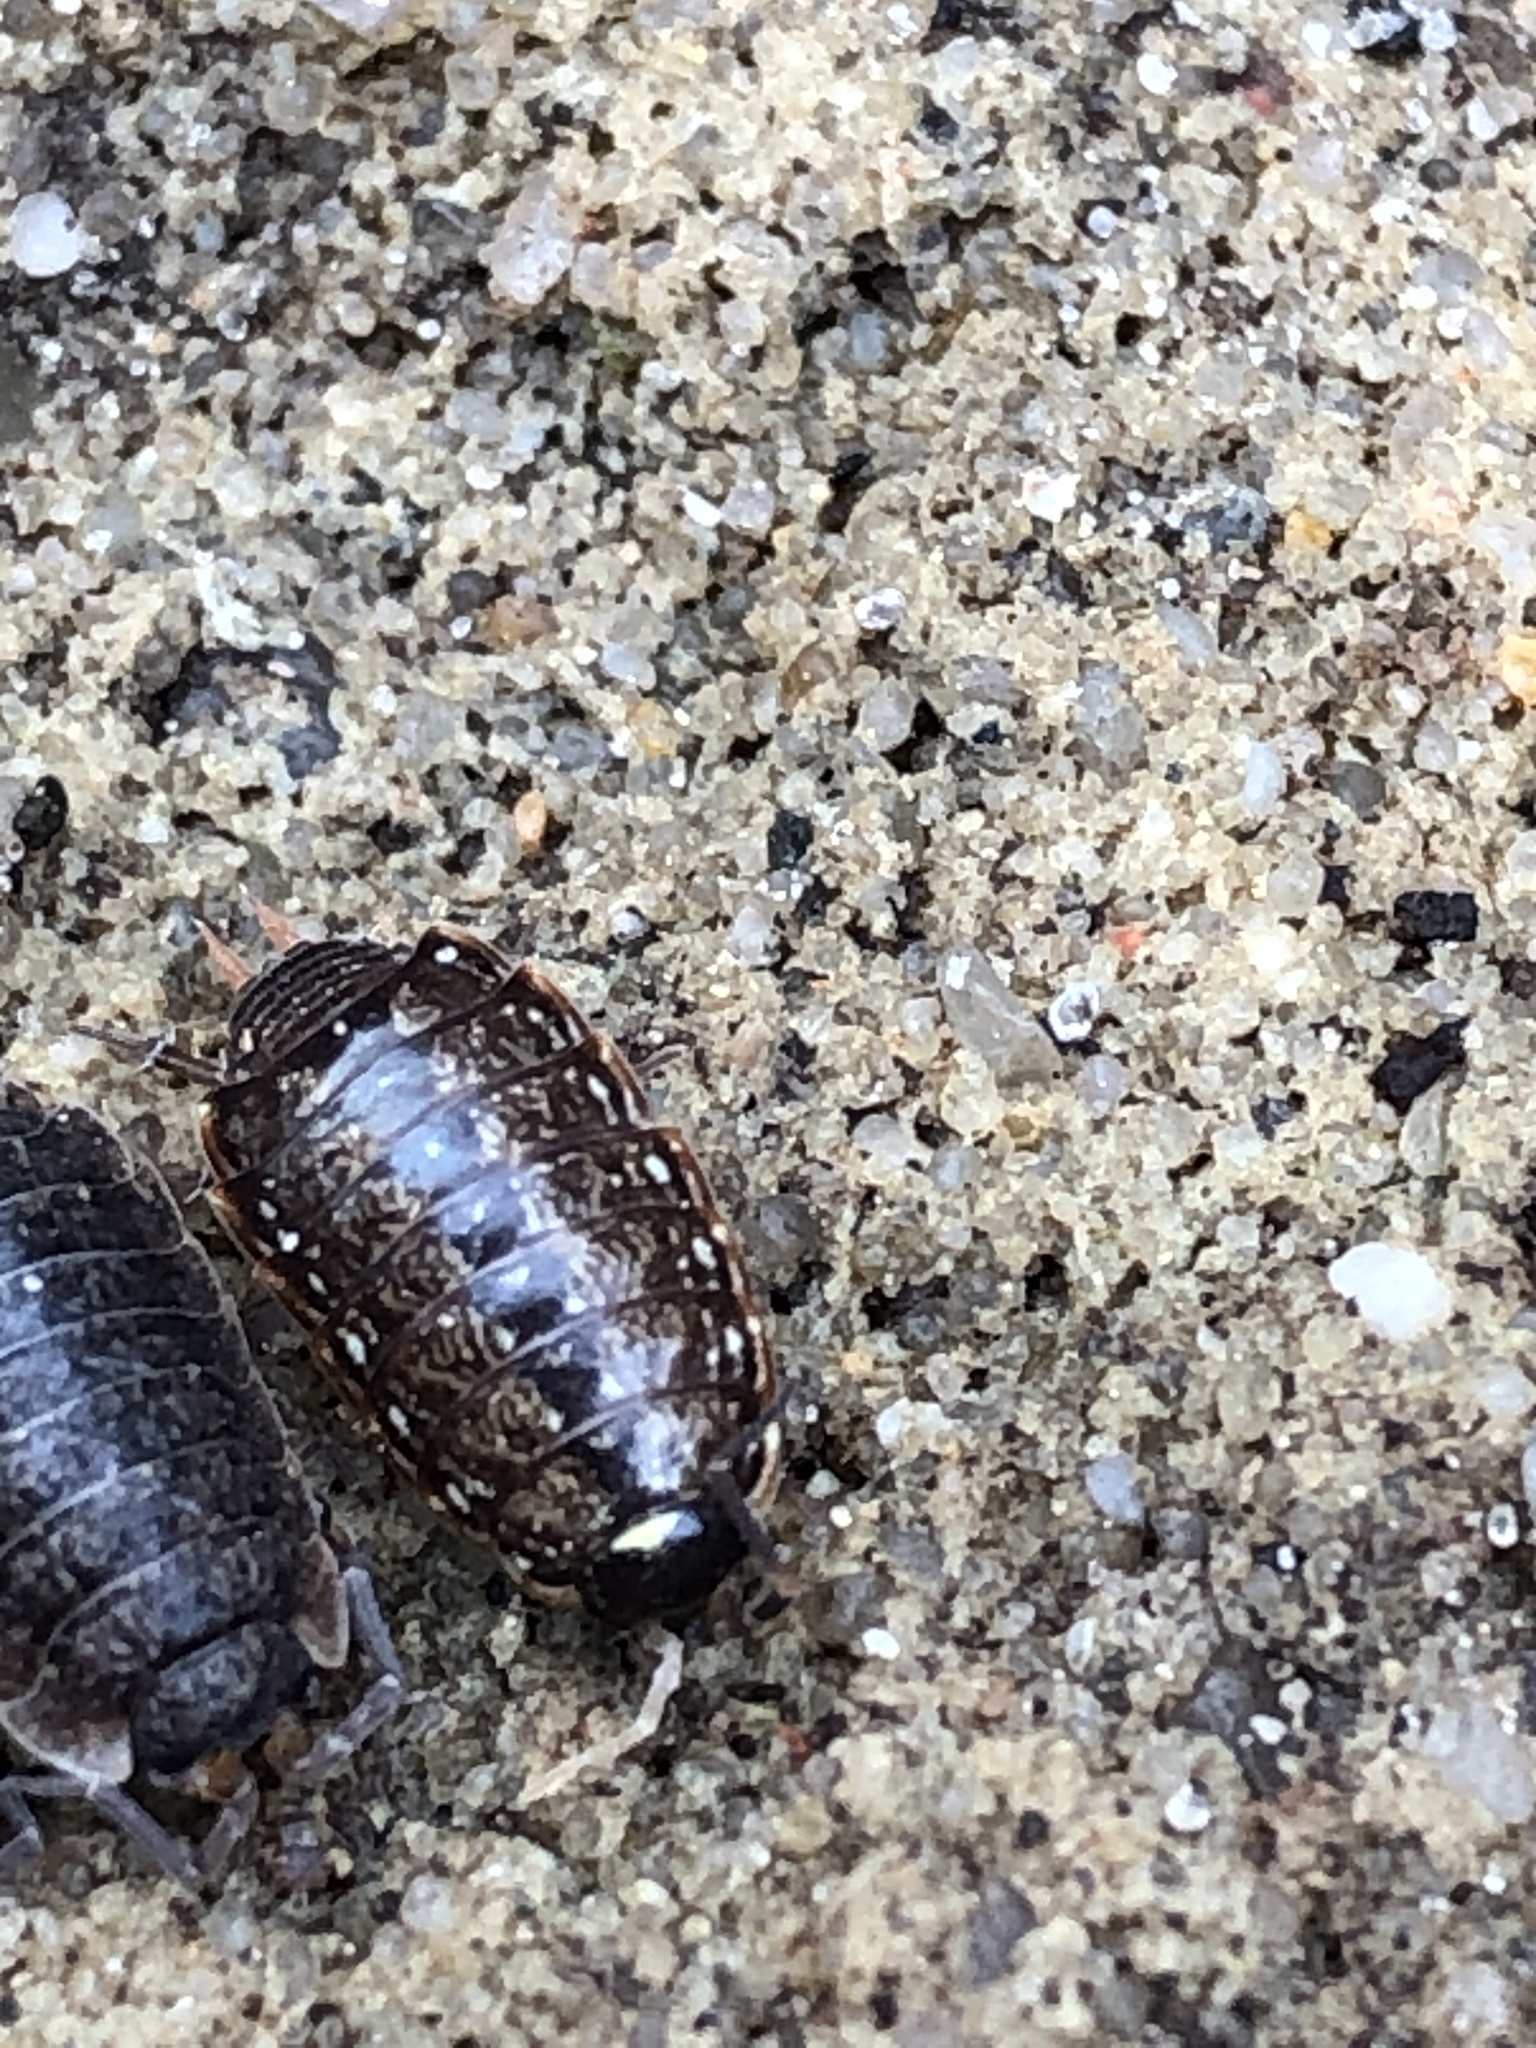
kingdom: Animalia
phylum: Arthropoda
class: Malacostraca
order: Isopoda
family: Philosciidae
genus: Philoscia
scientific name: Philoscia muscorum
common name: Common striped woodlouse
